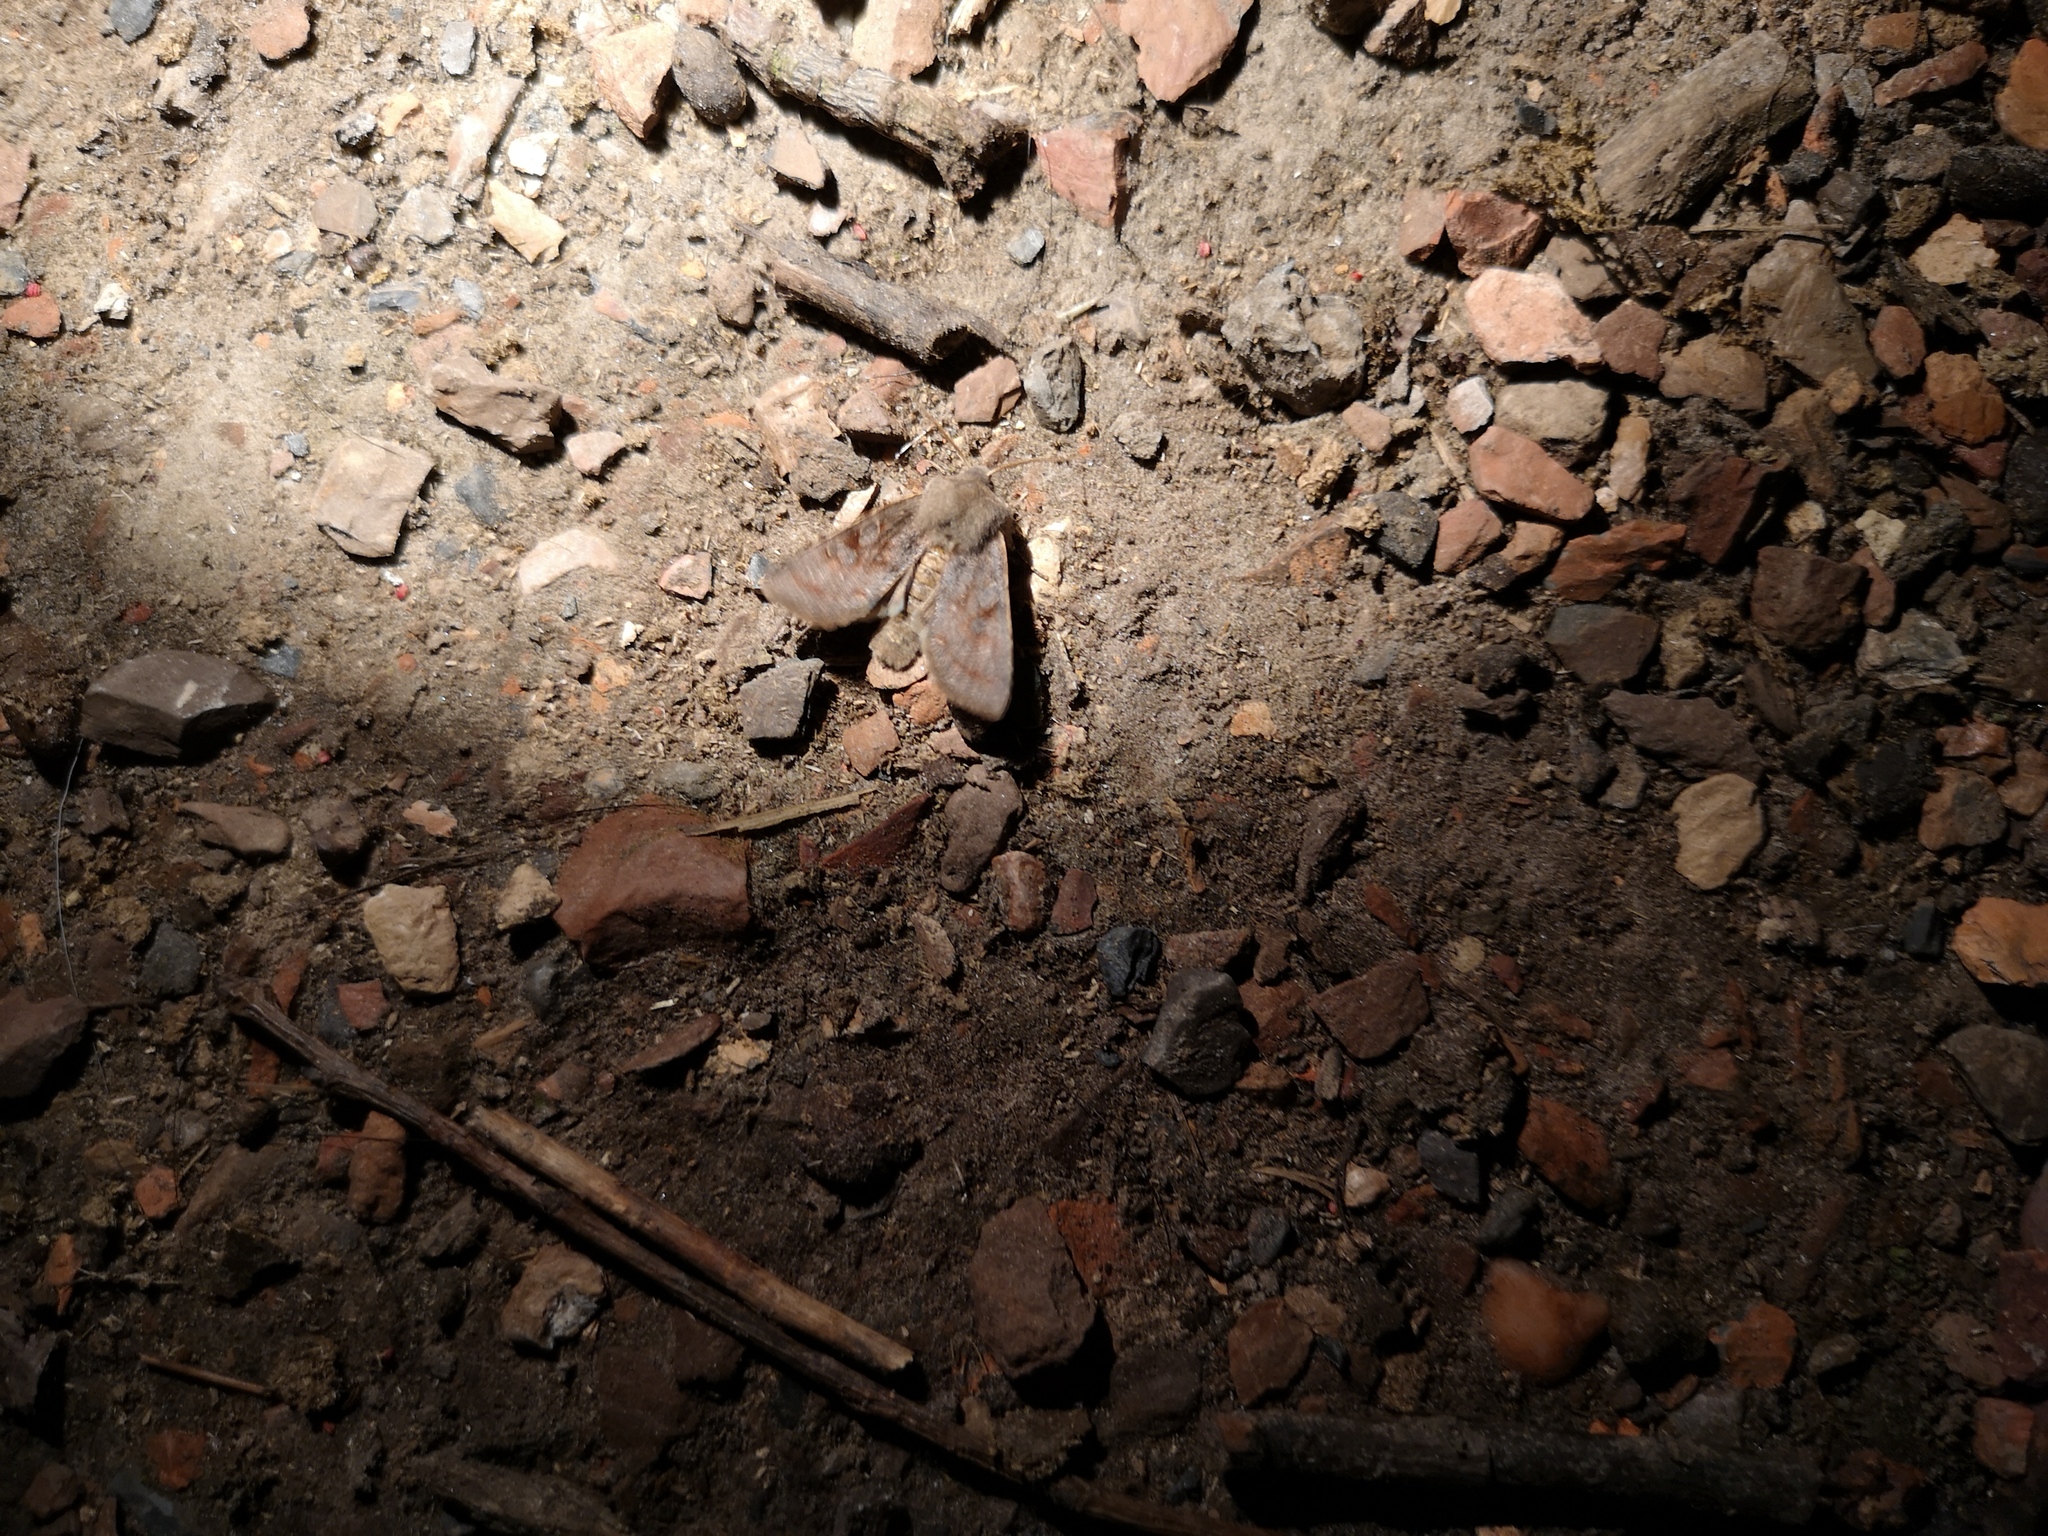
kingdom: Animalia
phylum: Arthropoda
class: Insecta
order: Lepidoptera
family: Noctuidae
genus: Orthosia
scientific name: Orthosia incerta
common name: Clouded drab
